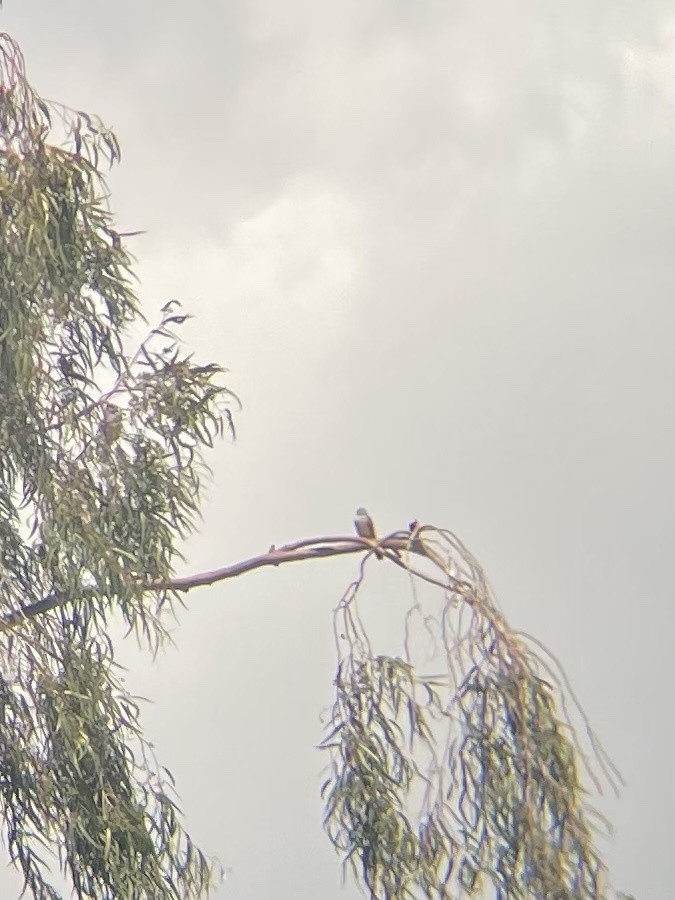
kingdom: Animalia
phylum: Chordata
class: Aves
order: Passeriformes
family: Tyrannidae
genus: Tyrannus
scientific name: Tyrannus verticalis
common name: Western kingbird
